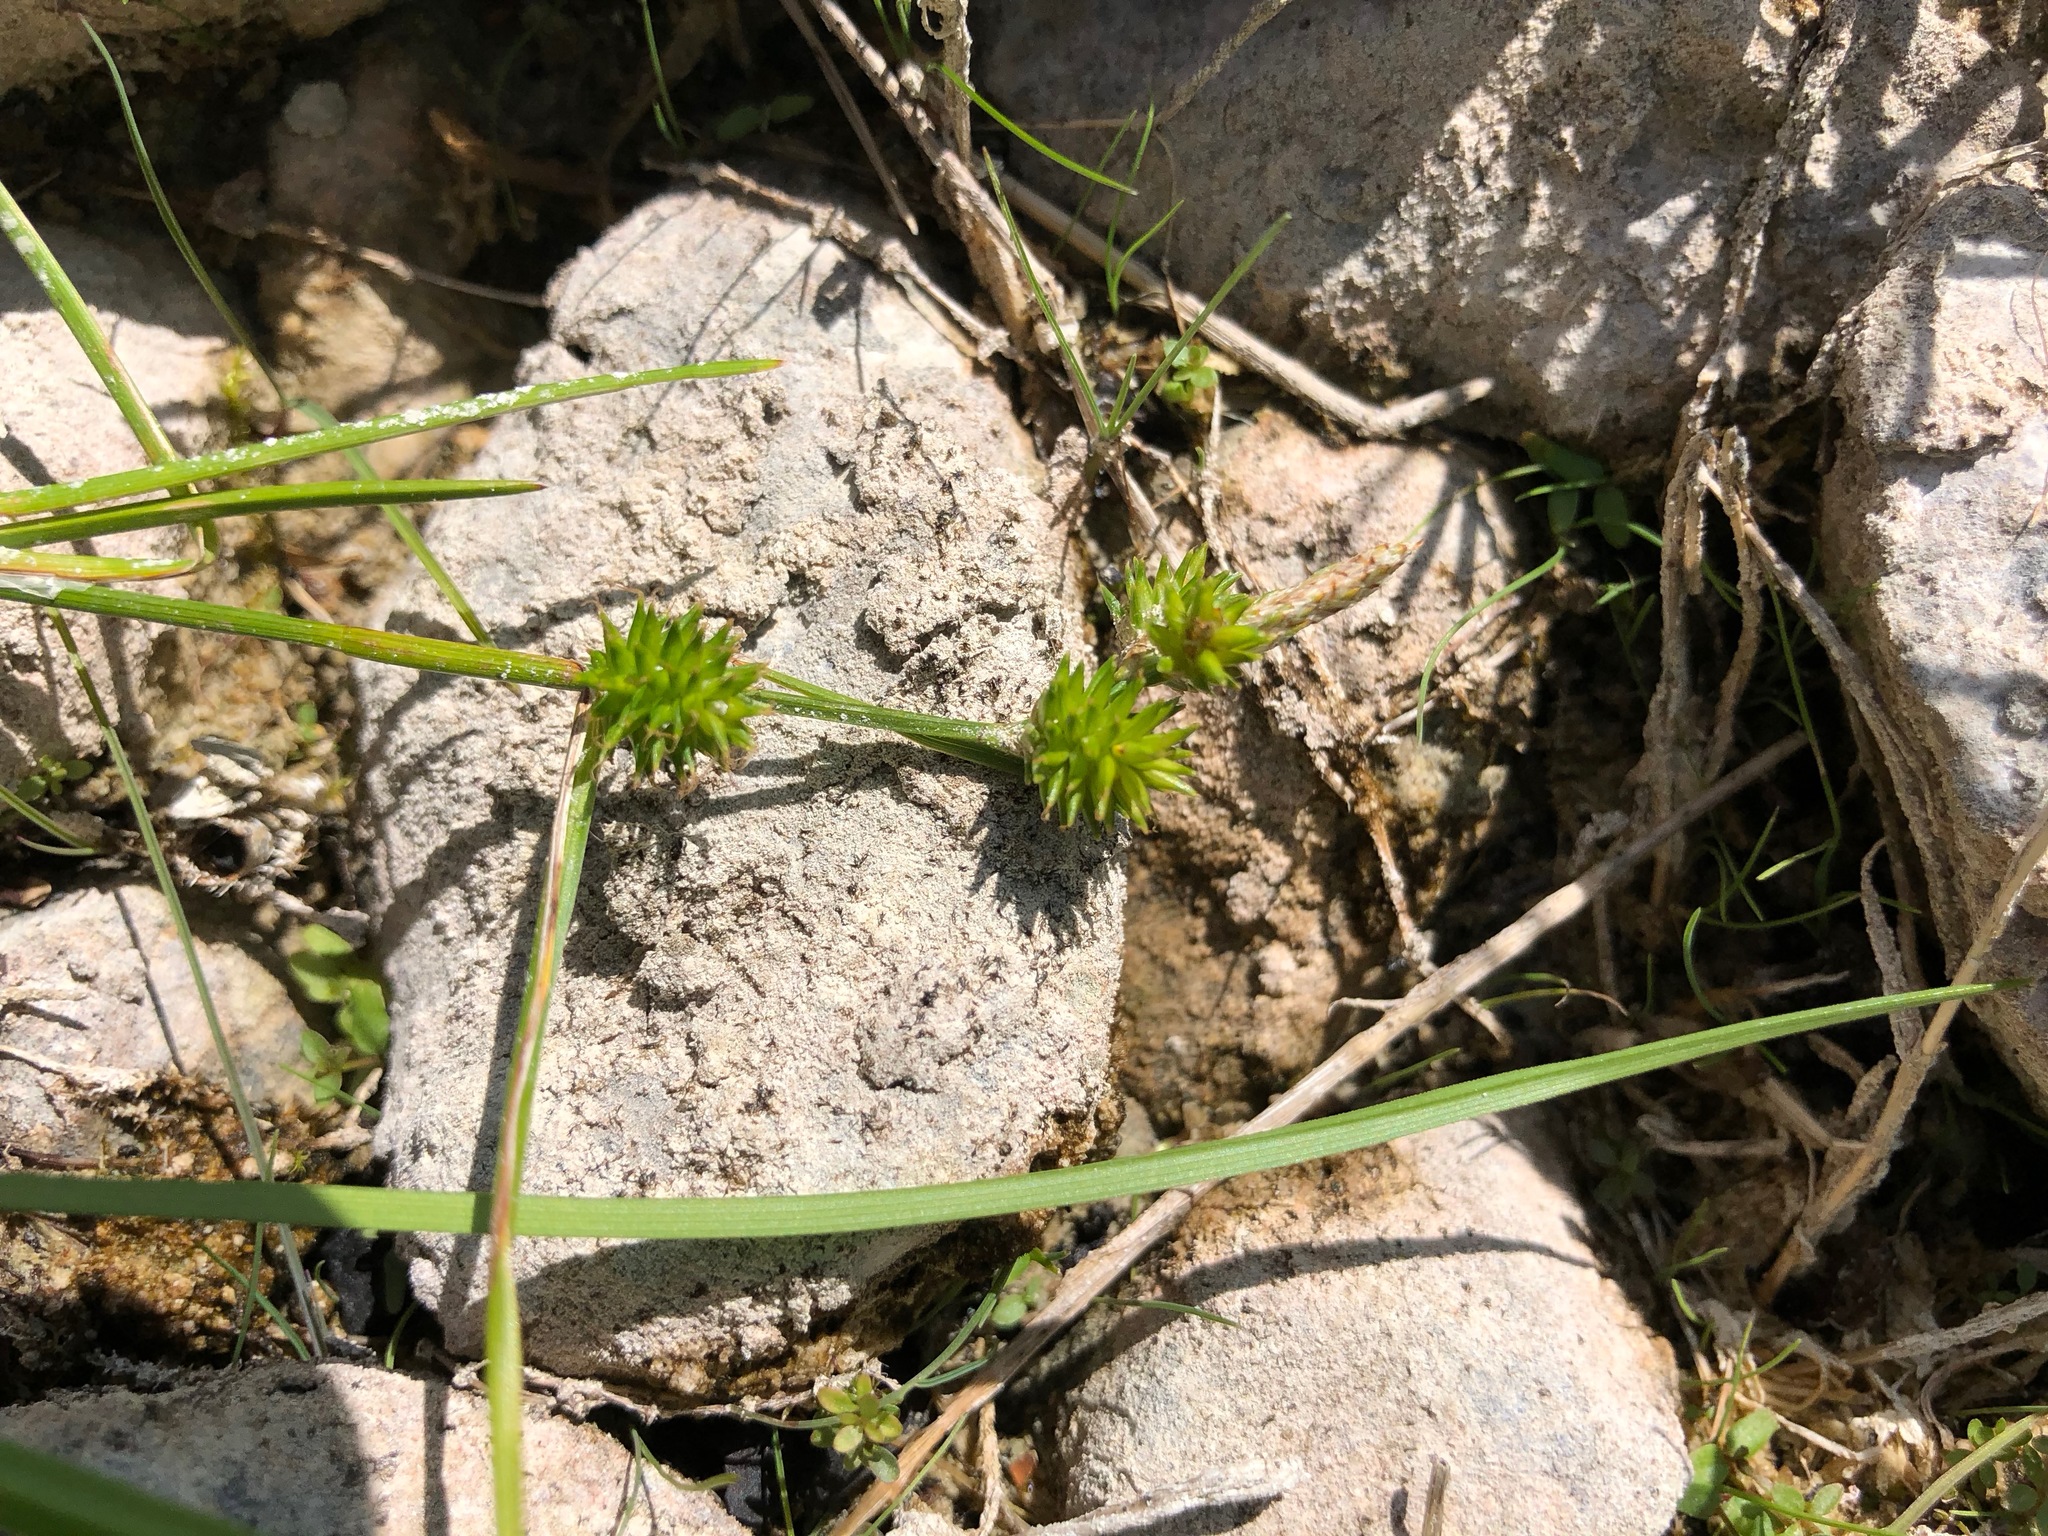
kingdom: Plantae
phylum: Tracheophyta
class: Liliopsida
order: Poales
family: Cyperaceae
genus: Carex
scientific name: Carex flava
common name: Large yellow-sedge
